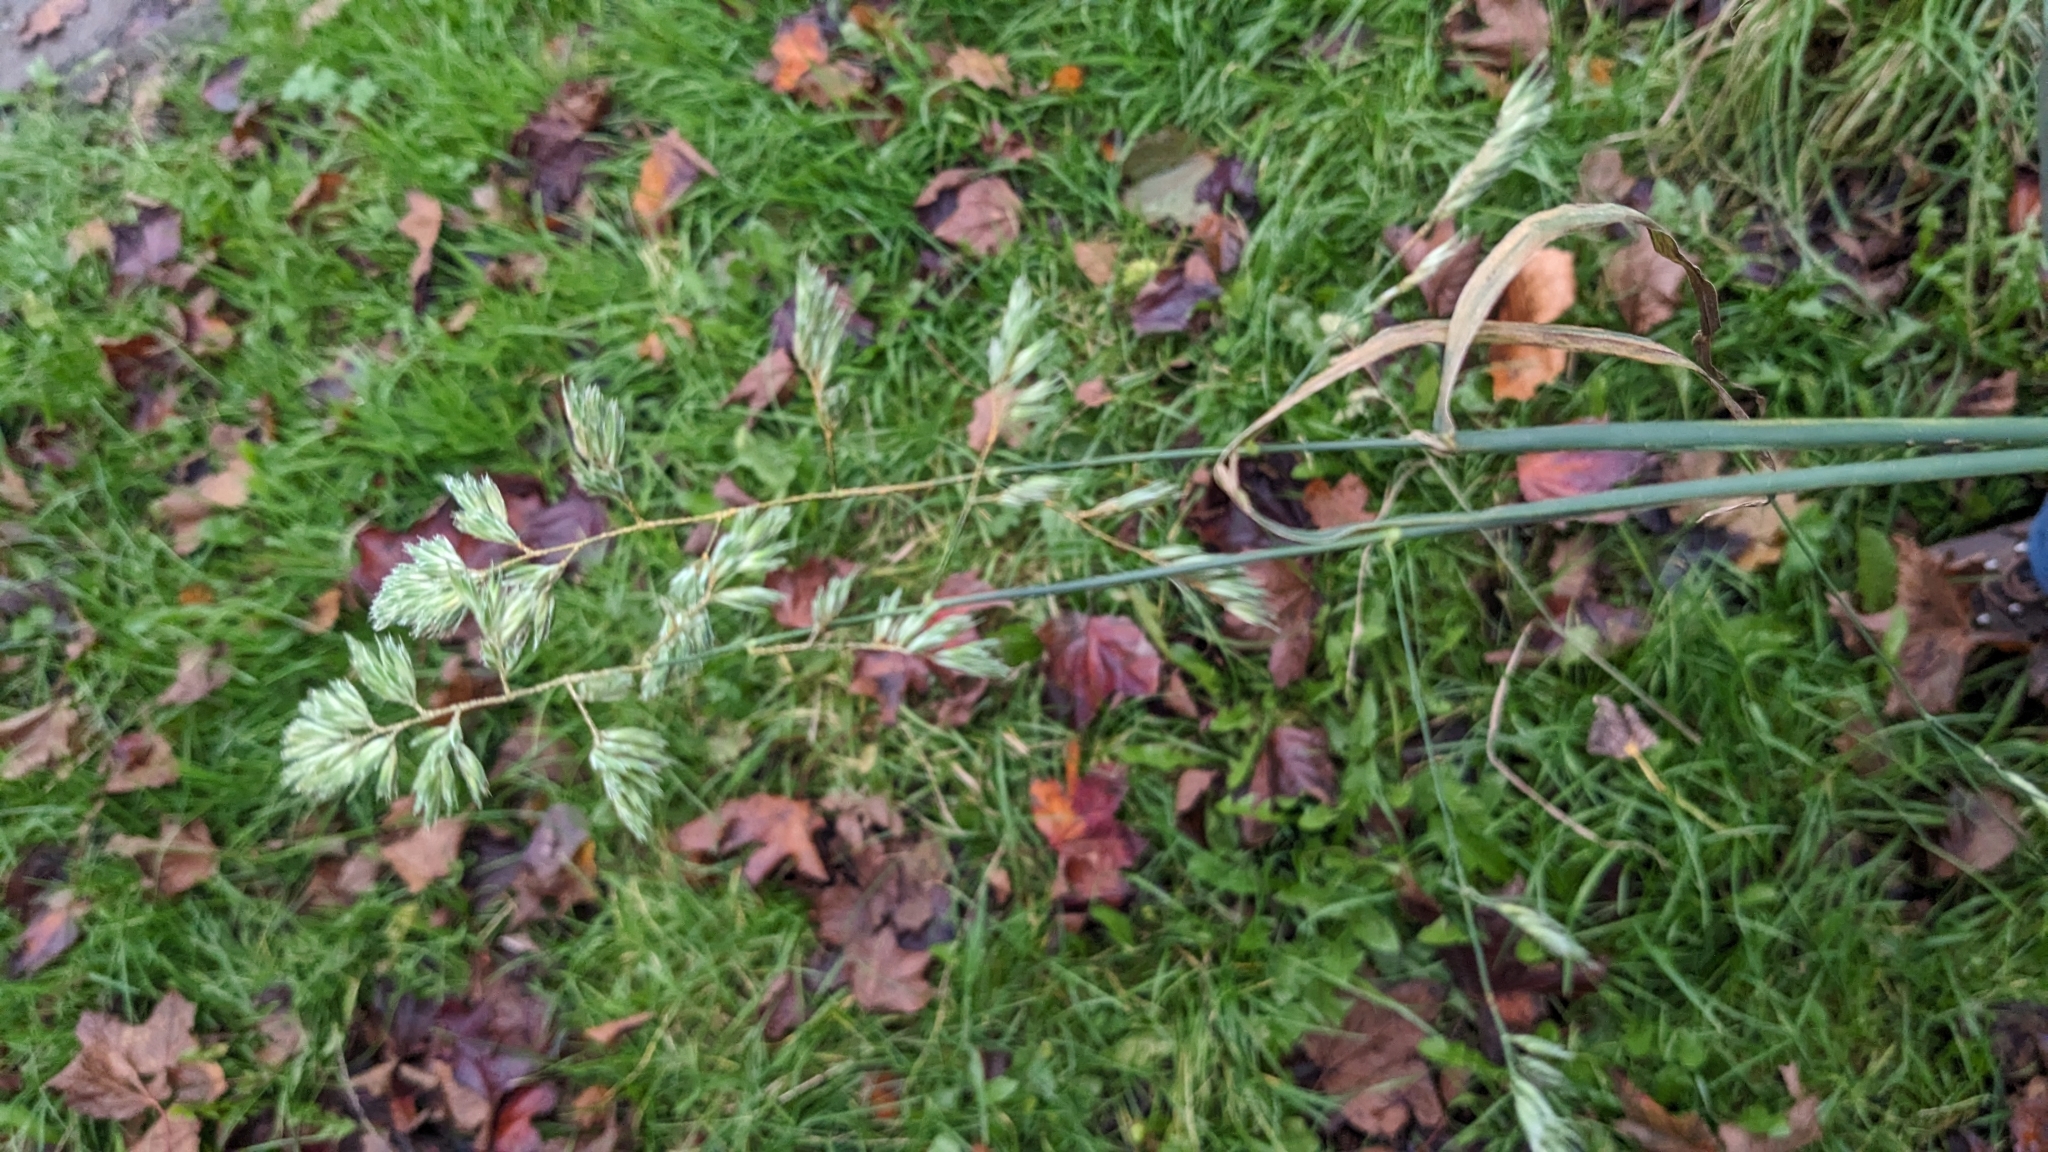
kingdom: Plantae
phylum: Tracheophyta
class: Liliopsida
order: Poales
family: Poaceae
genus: Dactylis
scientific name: Dactylis glomerata
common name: Orchardgrass
